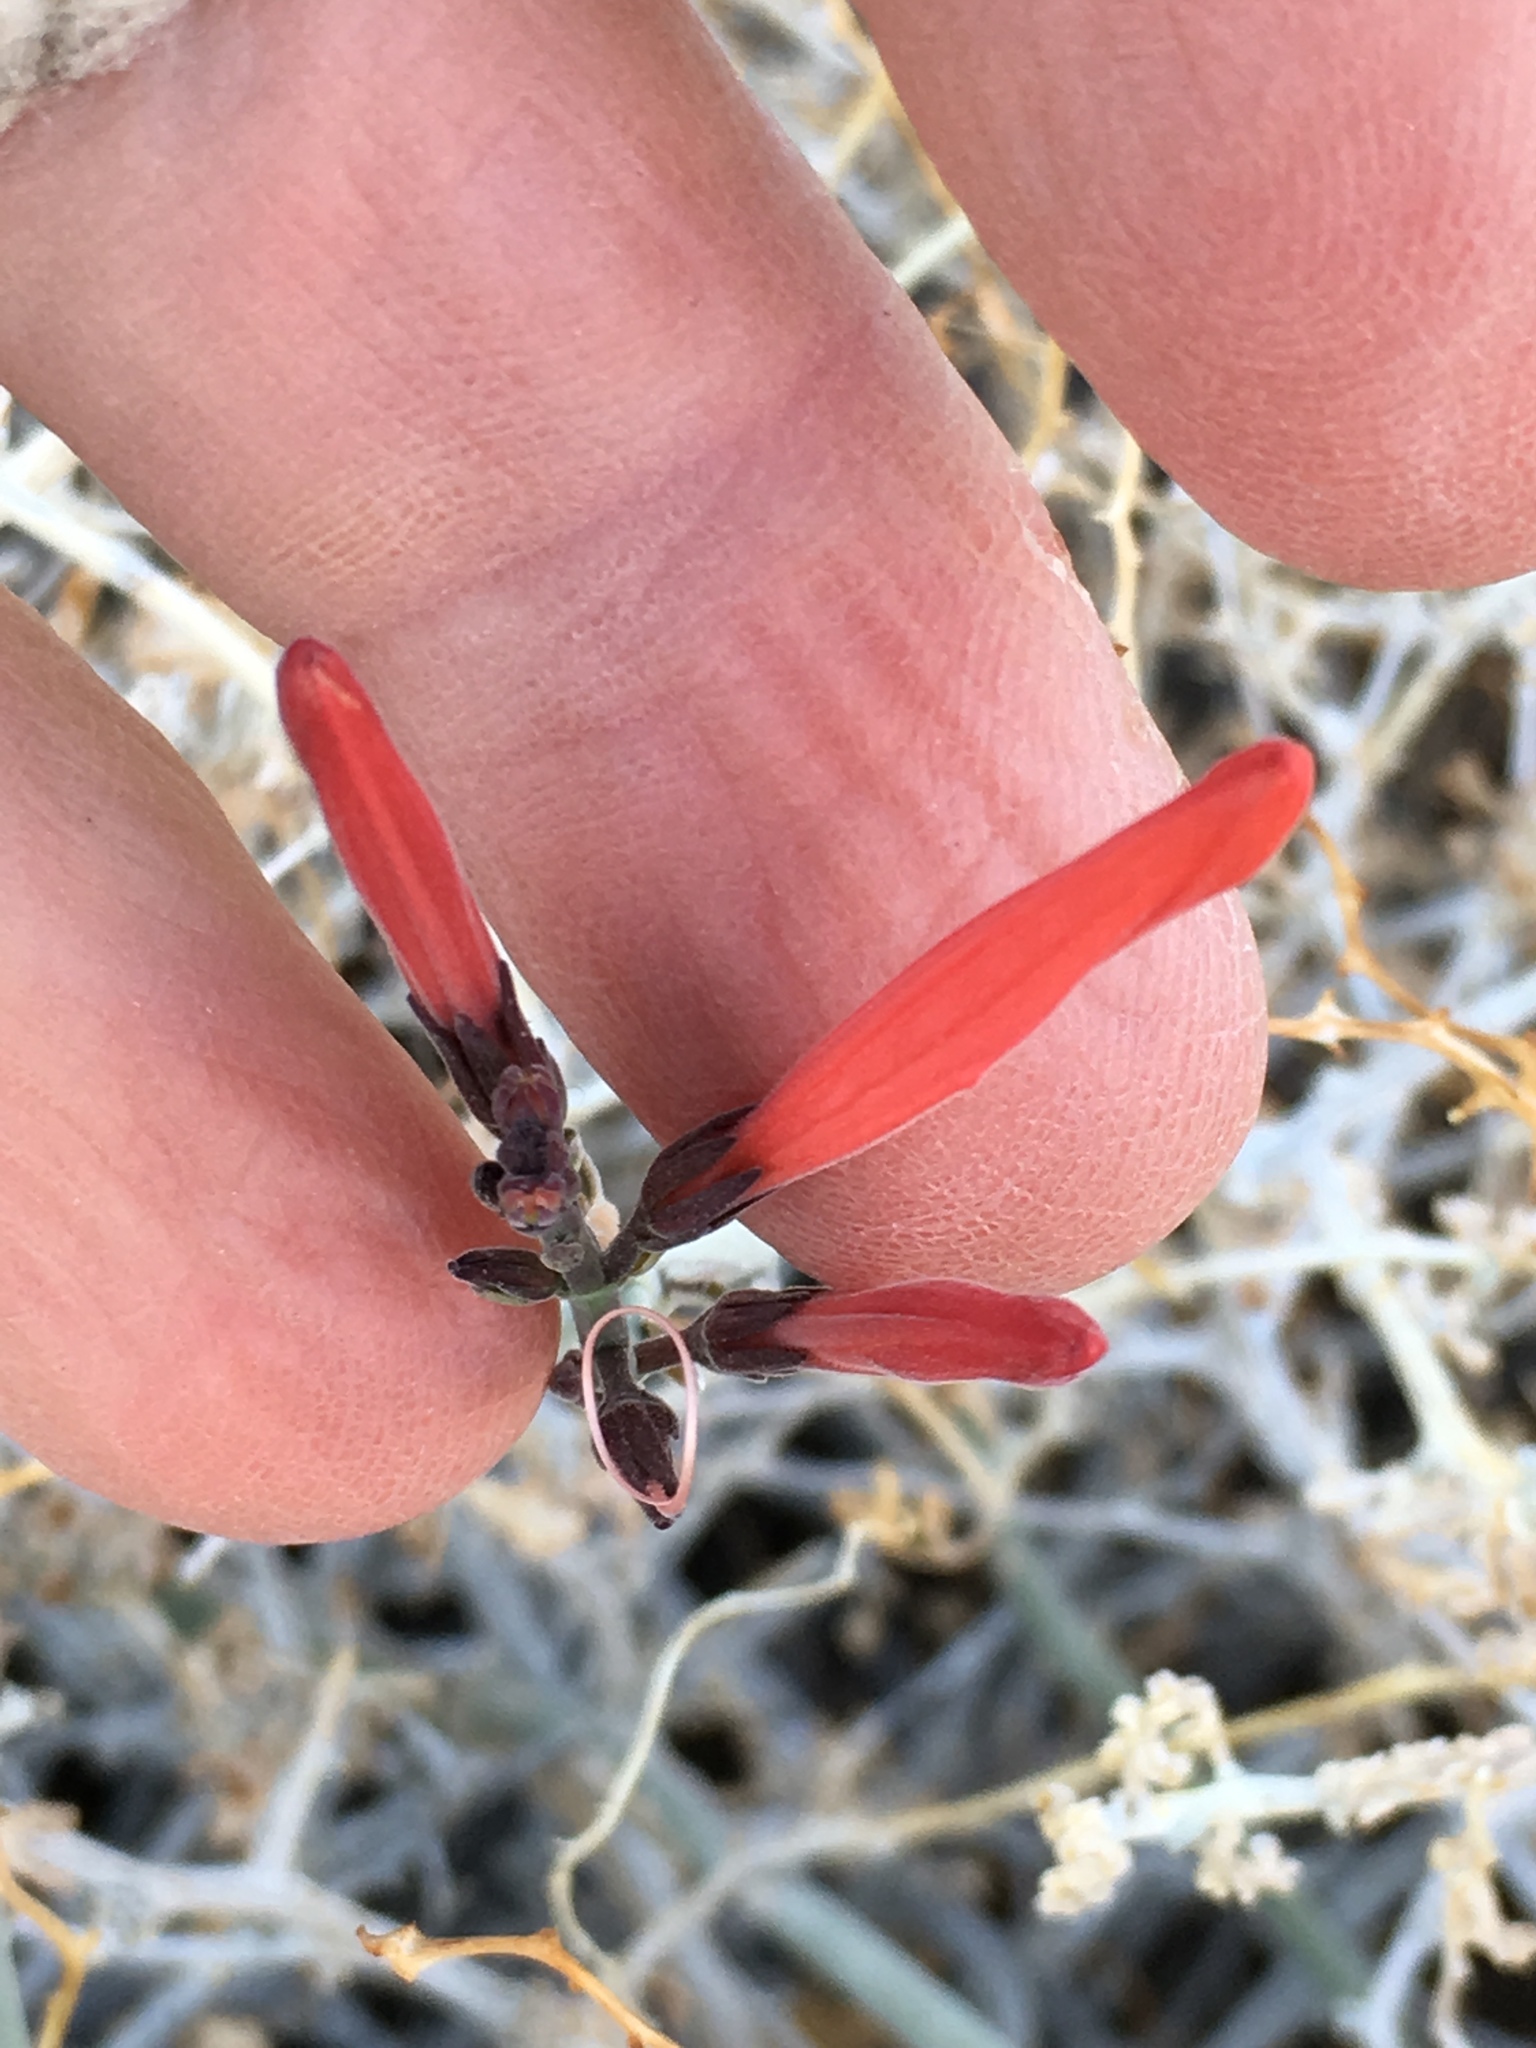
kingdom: Plantae
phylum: Tracheophyta
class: Magnoliopsida
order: Lamiales
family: Acanthaceae
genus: Justicia
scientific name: Justicia californica
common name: Chuparosa-honeysuckle
